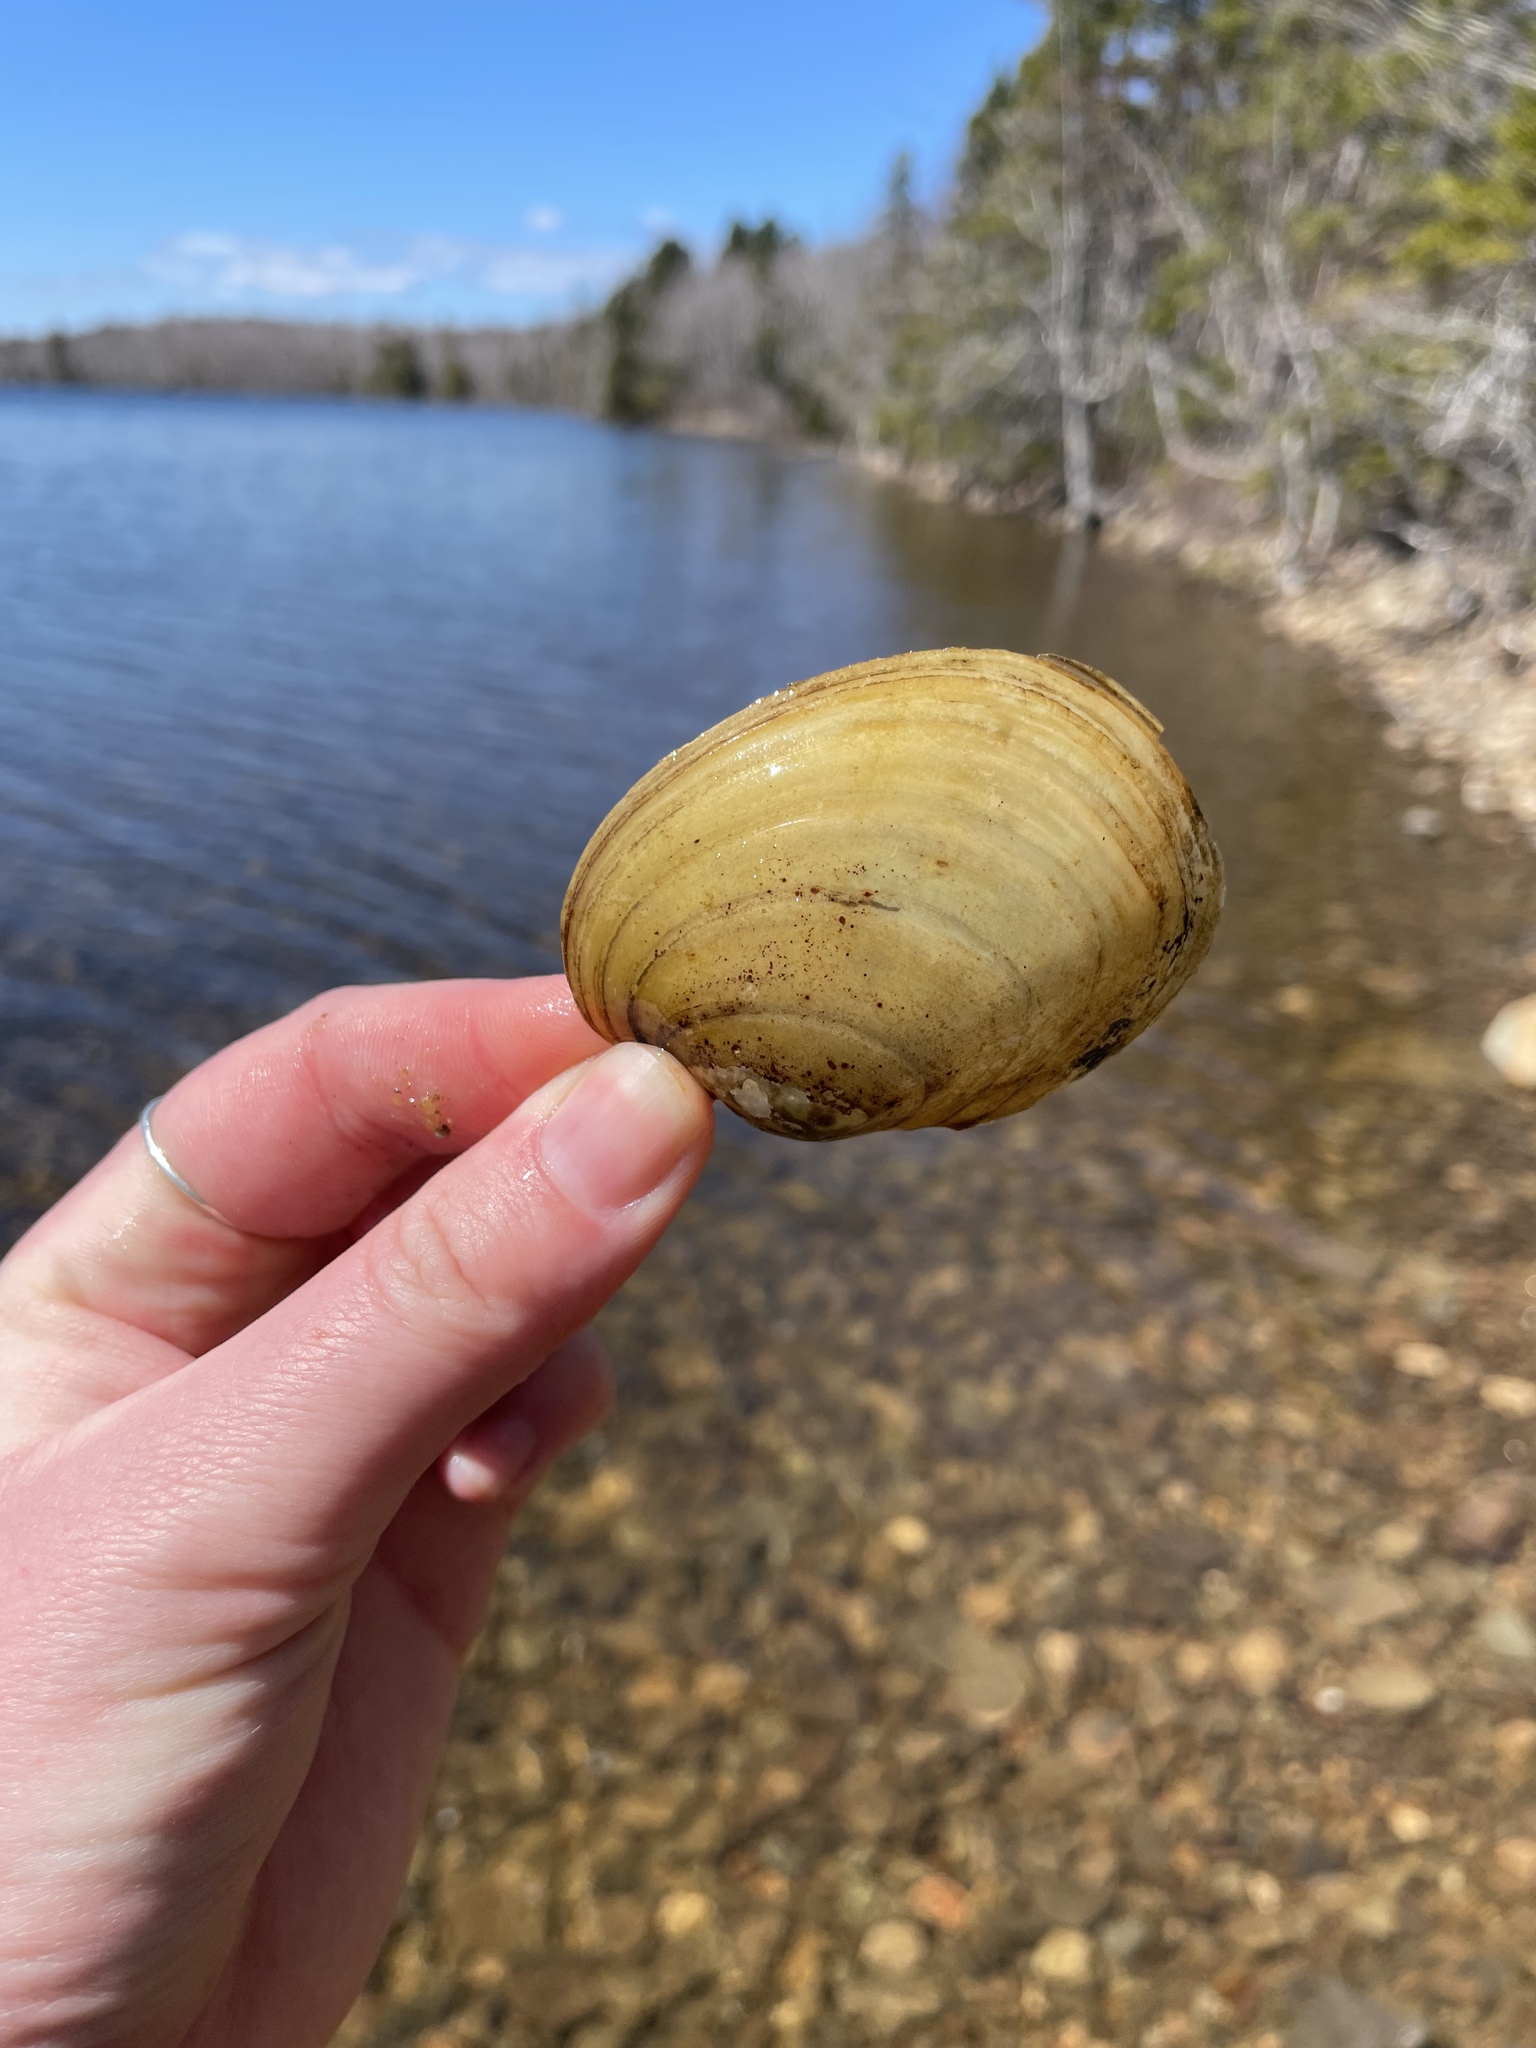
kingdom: Animalia
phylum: Mollusca
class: Bivalvia
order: Unionida
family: Unionidae
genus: Lampsilis
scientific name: Lampsilis cariosa
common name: Yellow lampmussel
